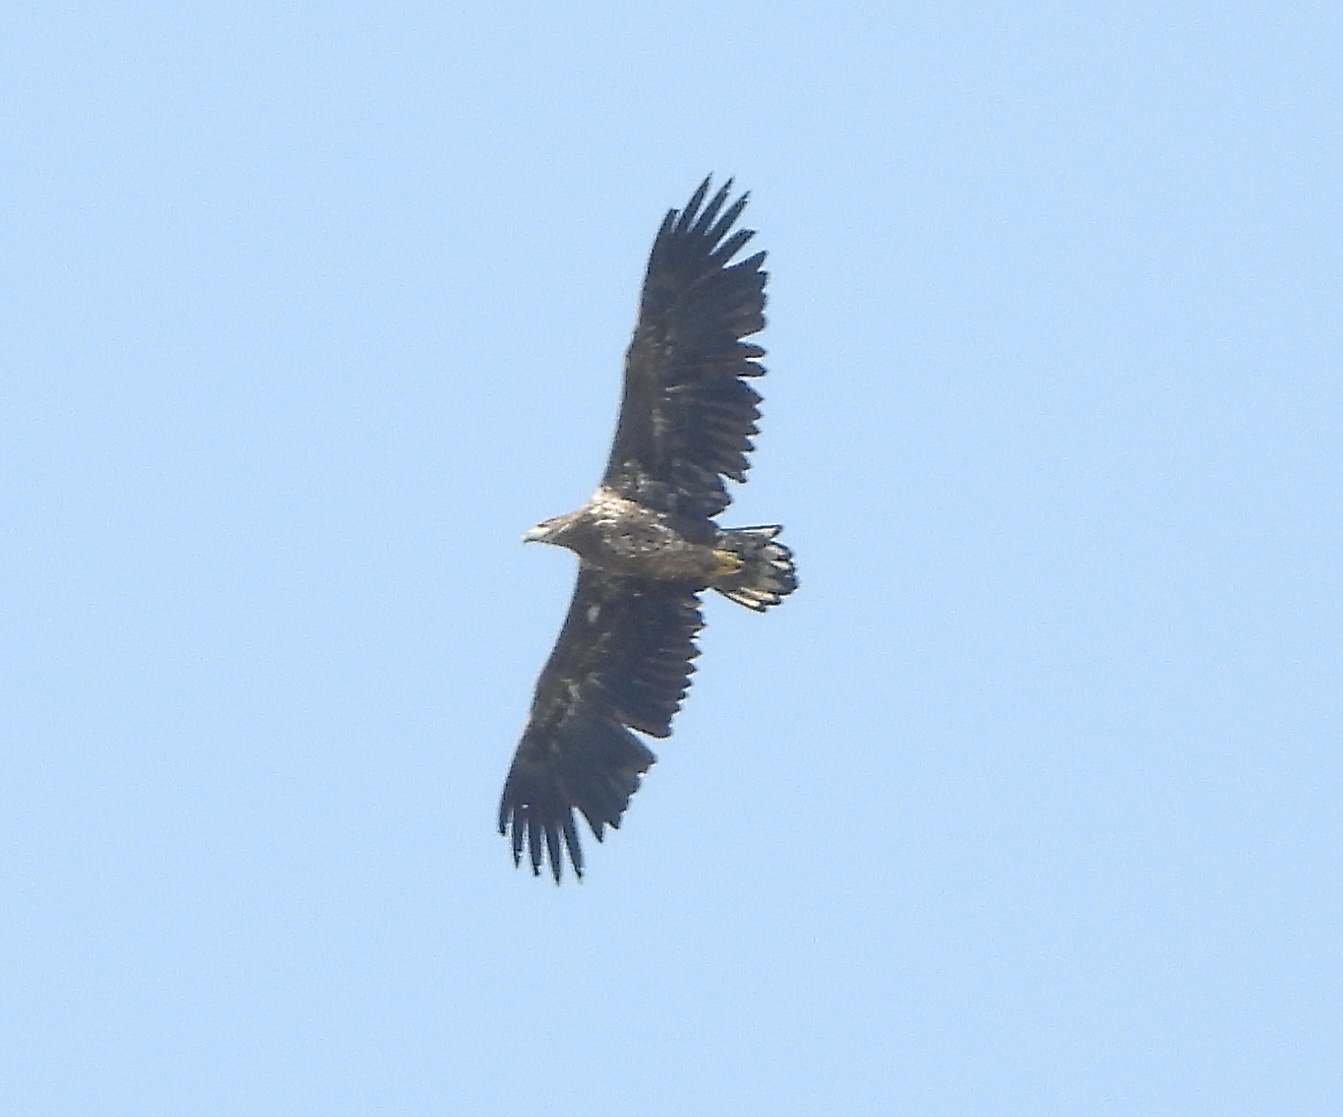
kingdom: Animalia
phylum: Chordata
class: Aves
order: Accipitriformes
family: Accipitridae
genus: Haliaeetus
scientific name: Haliaeetus albicilla
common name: White-tailed eagle
